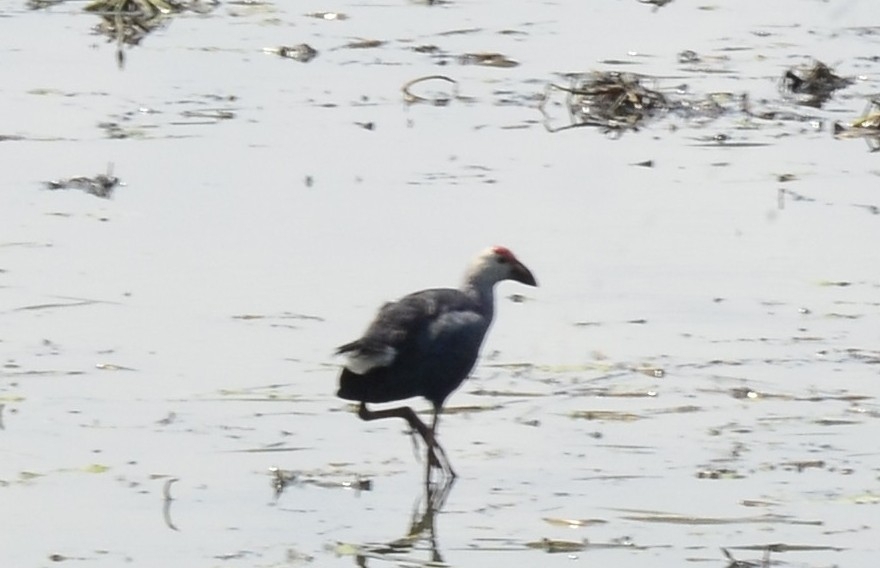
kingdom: Animalia
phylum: Chordata
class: Aves
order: Gruiformes
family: Rallidae
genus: Porphyrio
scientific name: Porphyrio porphyrio
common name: Purple swamphen
